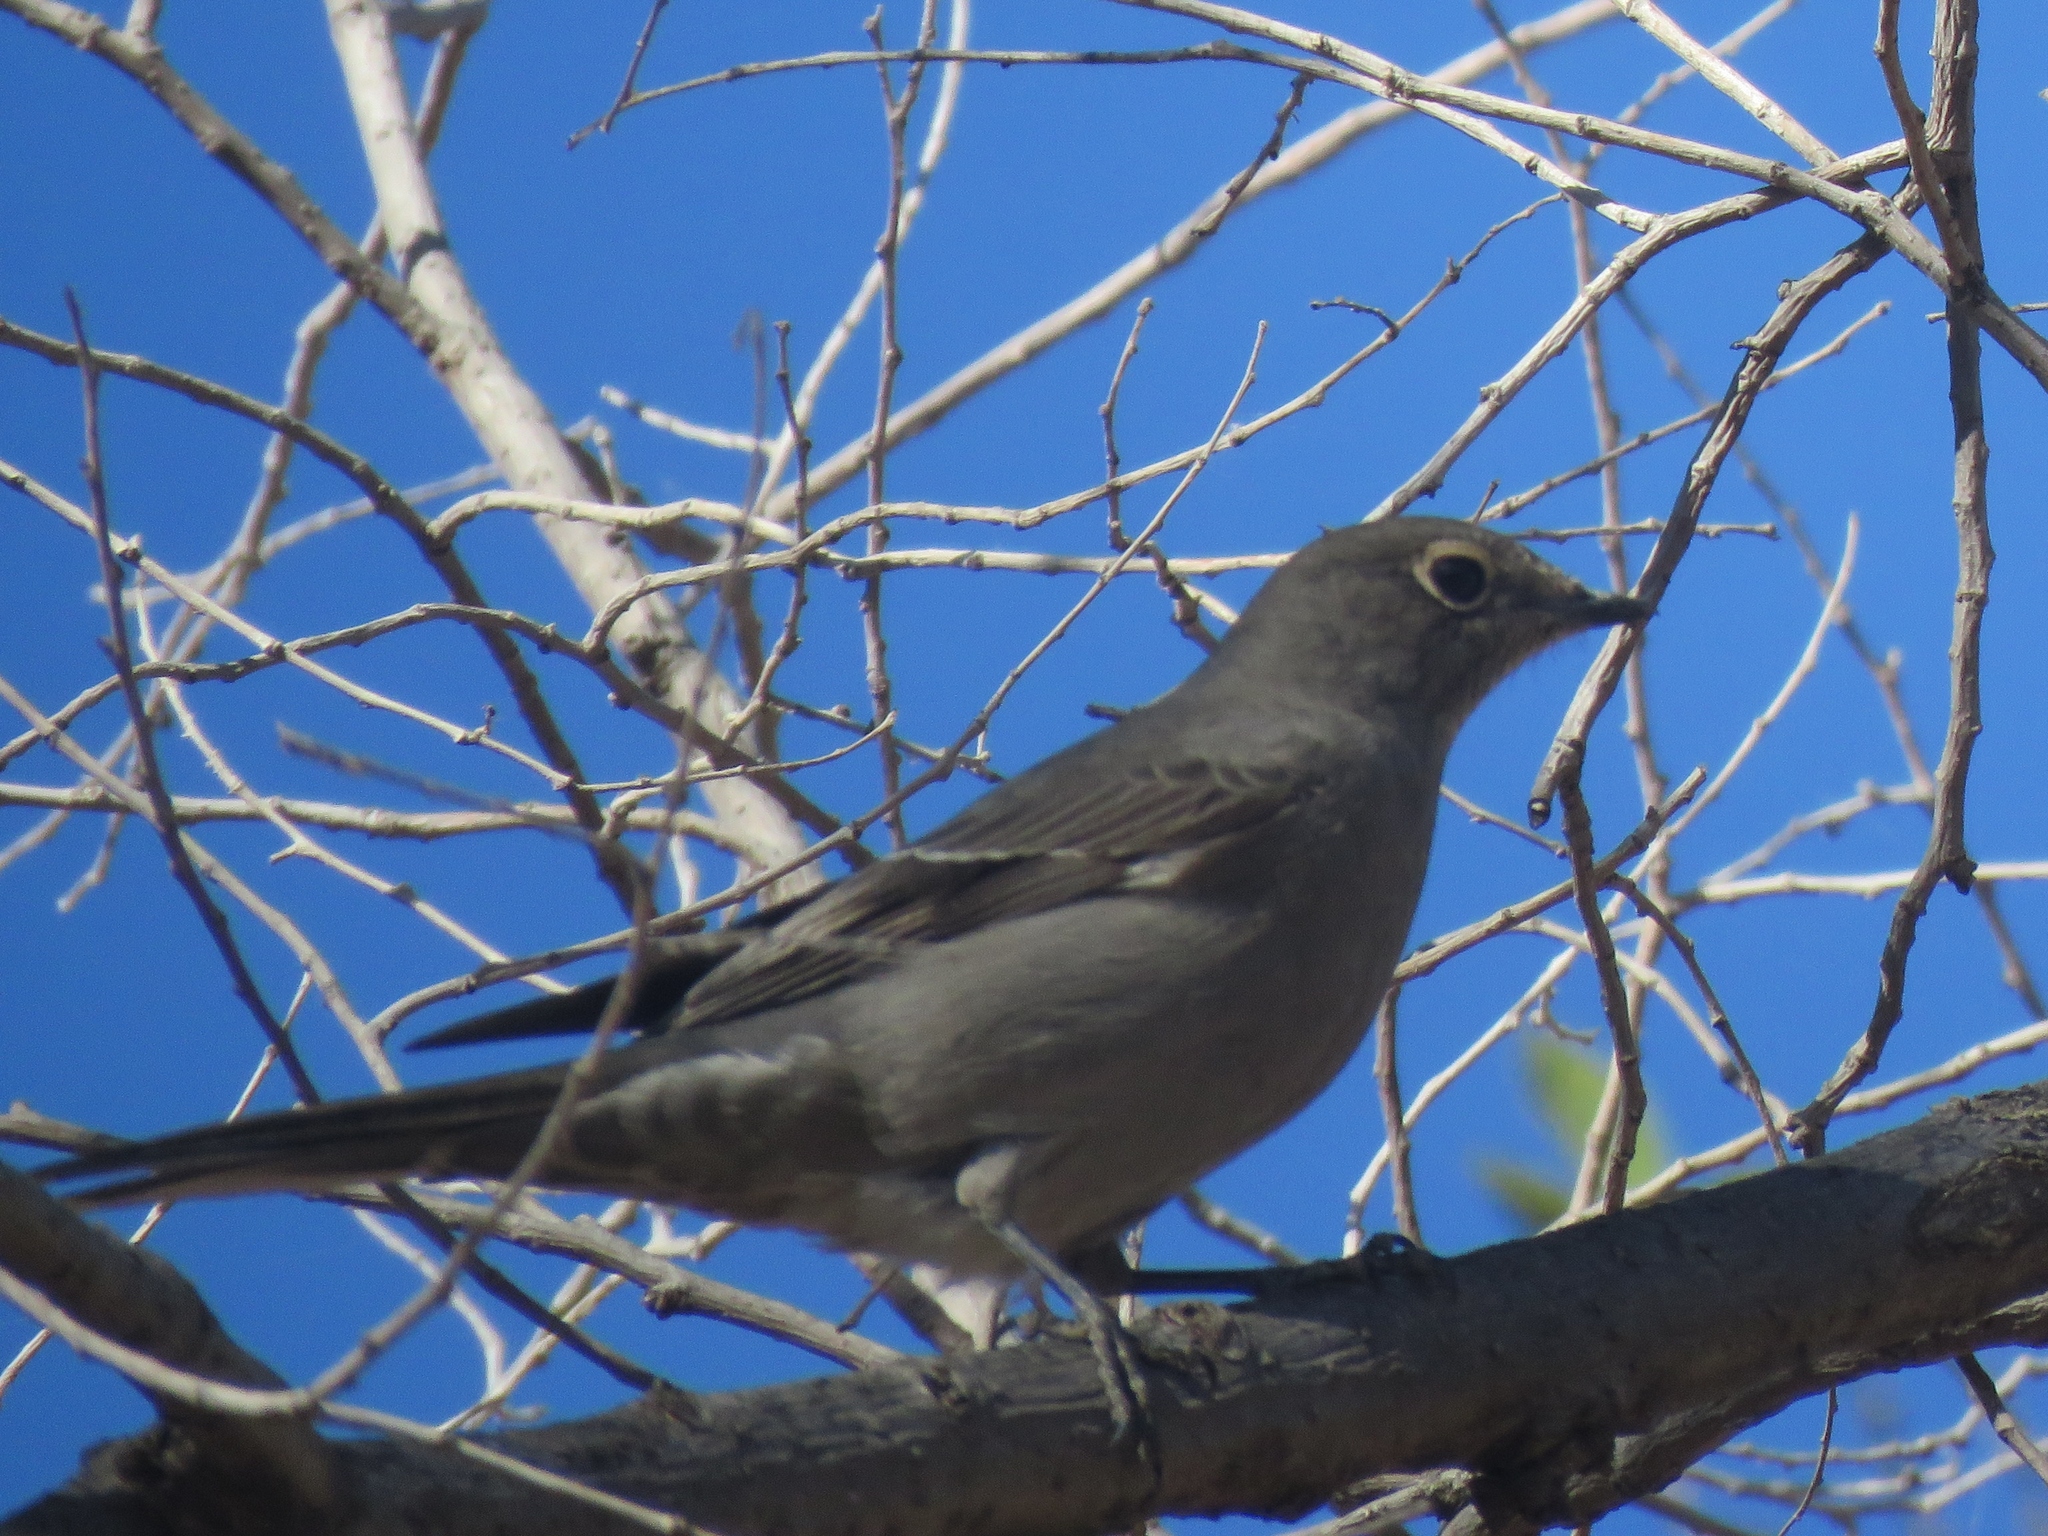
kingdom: Animalia
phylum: Chordata
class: Aves
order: Passeriformes
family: Turdidae
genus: Myadestes
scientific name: Myadestes townsendi
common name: Townsend's solitaire
